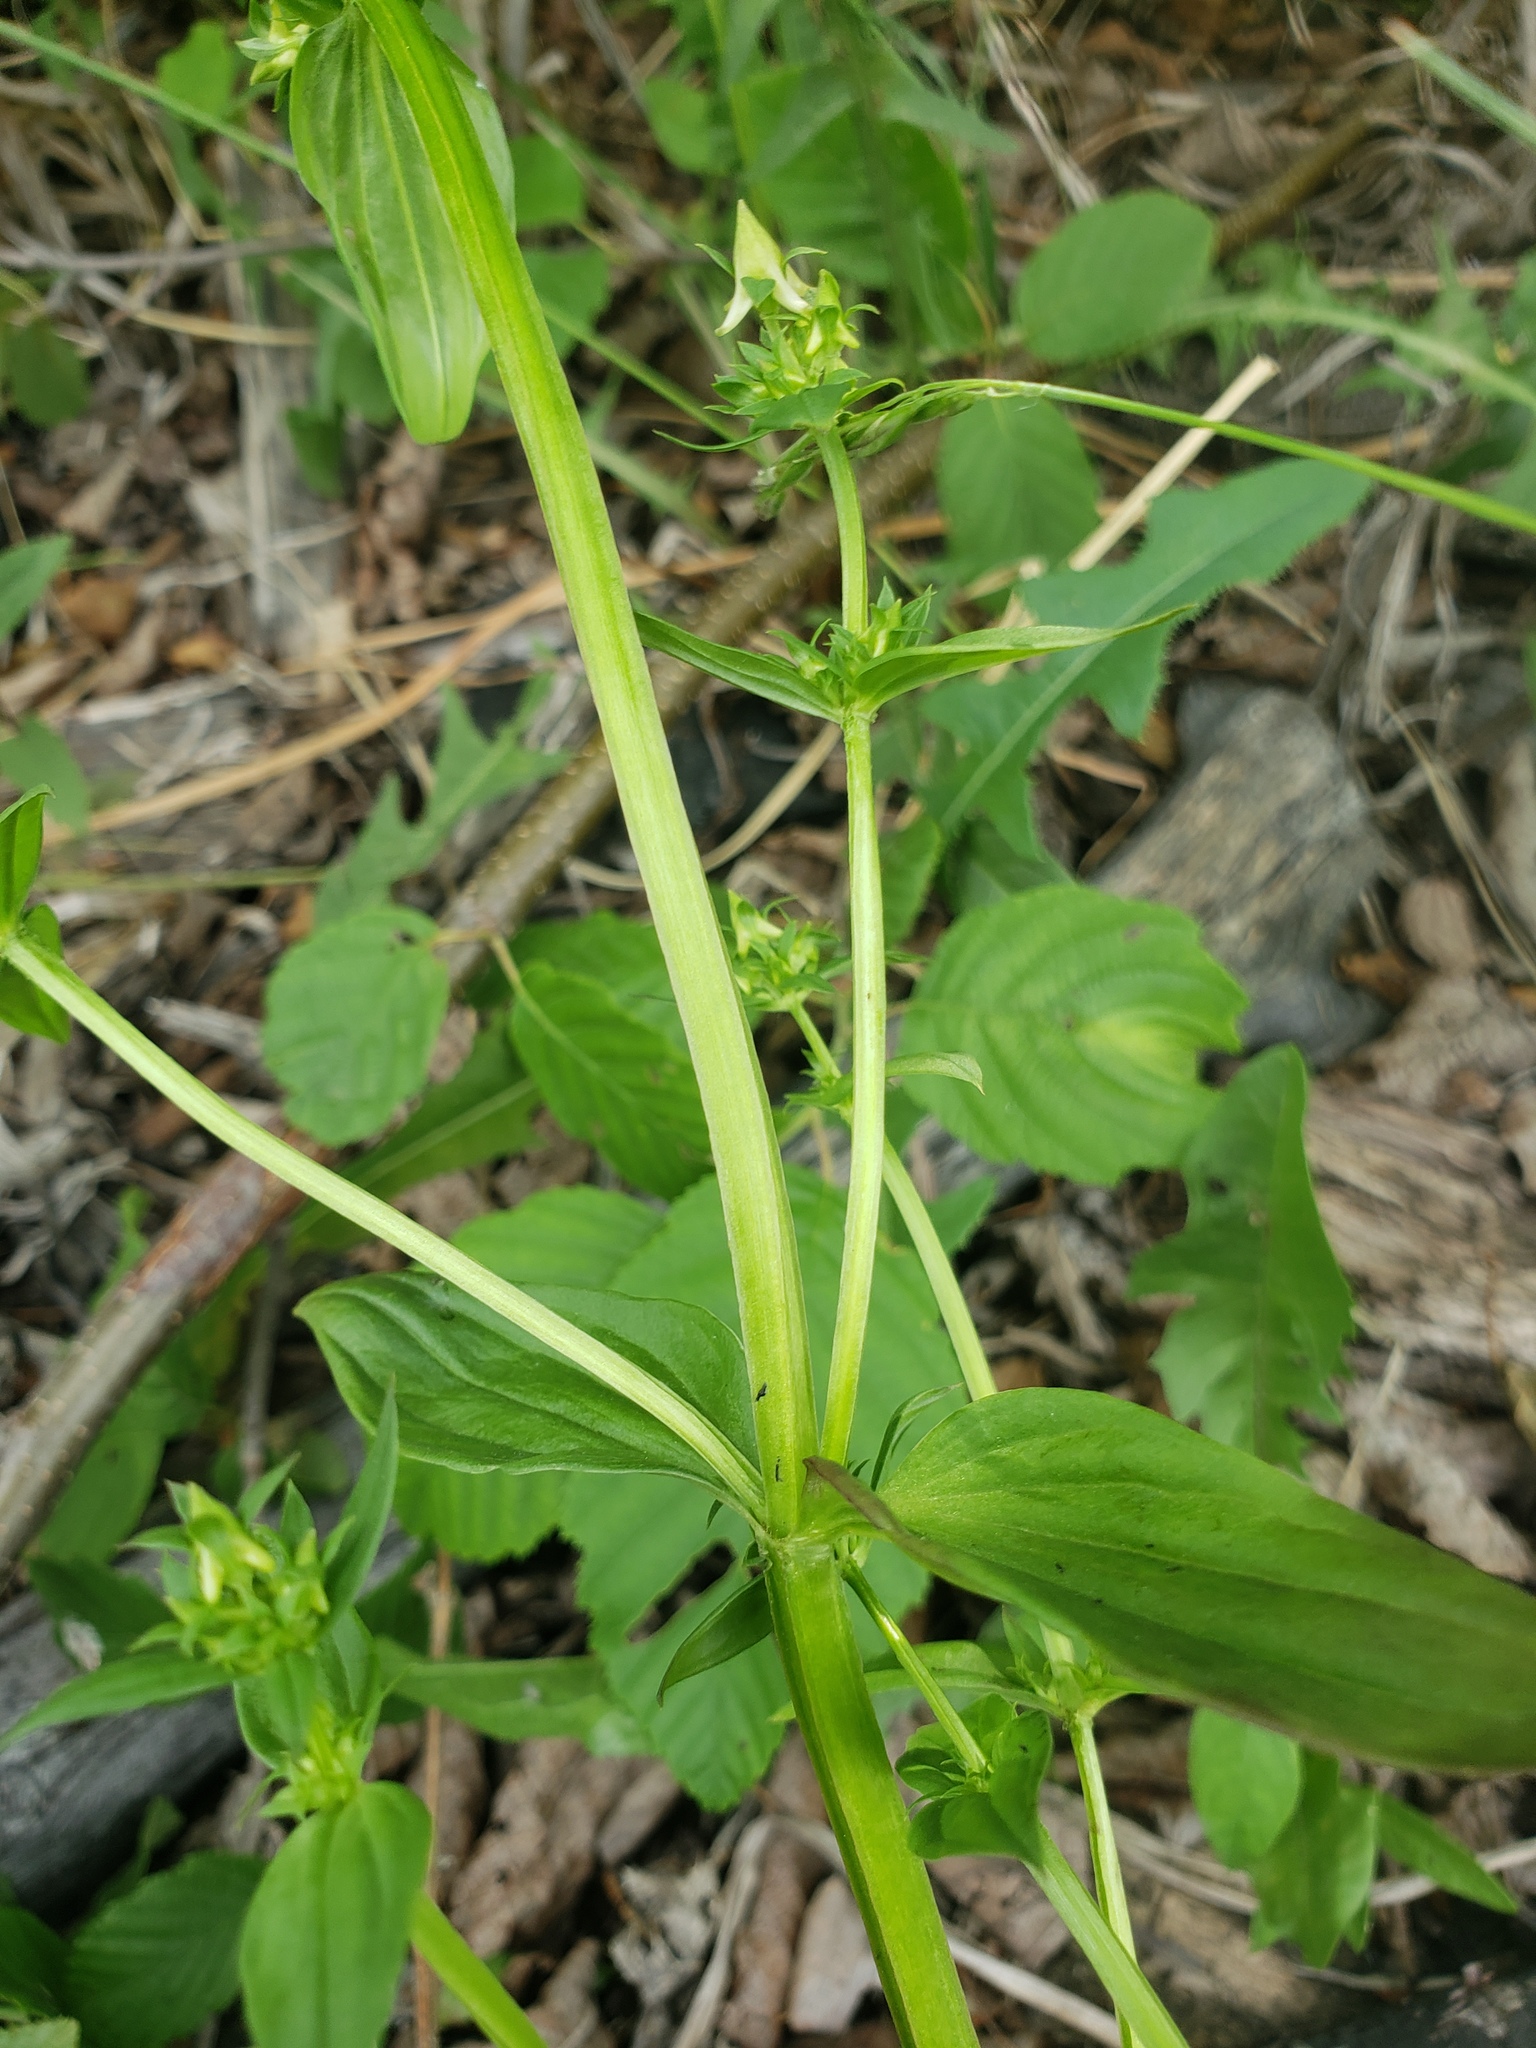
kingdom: Plantae
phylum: Tracheophyta
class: Magnoliopsida
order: Gentianales
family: Gentianaceae
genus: Halenia
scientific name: Halenia deflexa
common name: American spurred gentian
